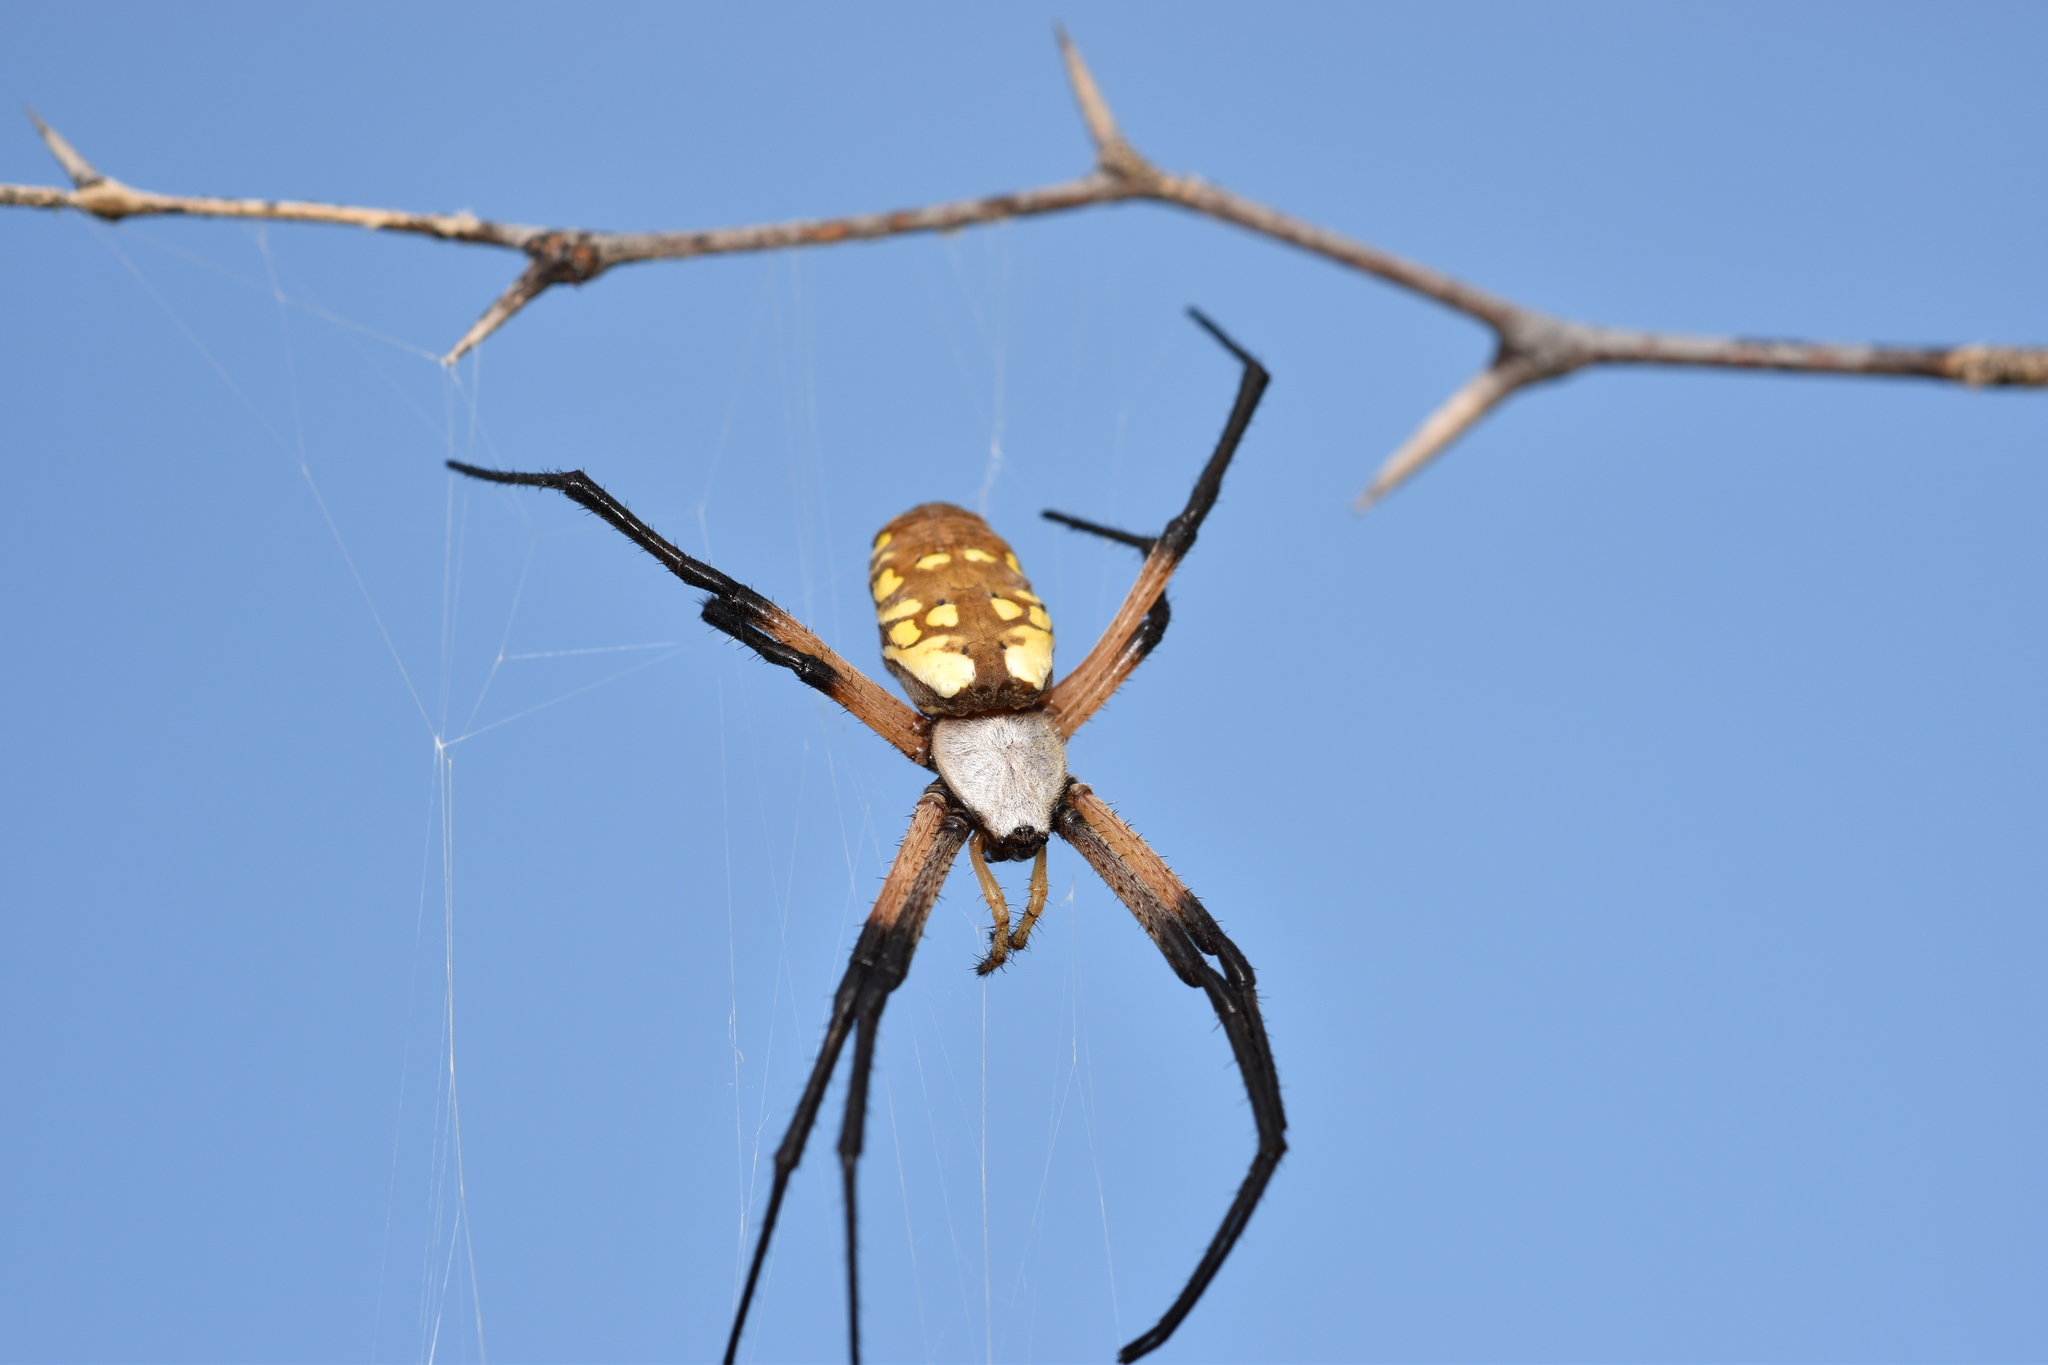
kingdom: Animalia
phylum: Arthropoda
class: Arachnida
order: Araneae
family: Araneidae
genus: Argiope
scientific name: Argiope aurantia
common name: Orb weavers
